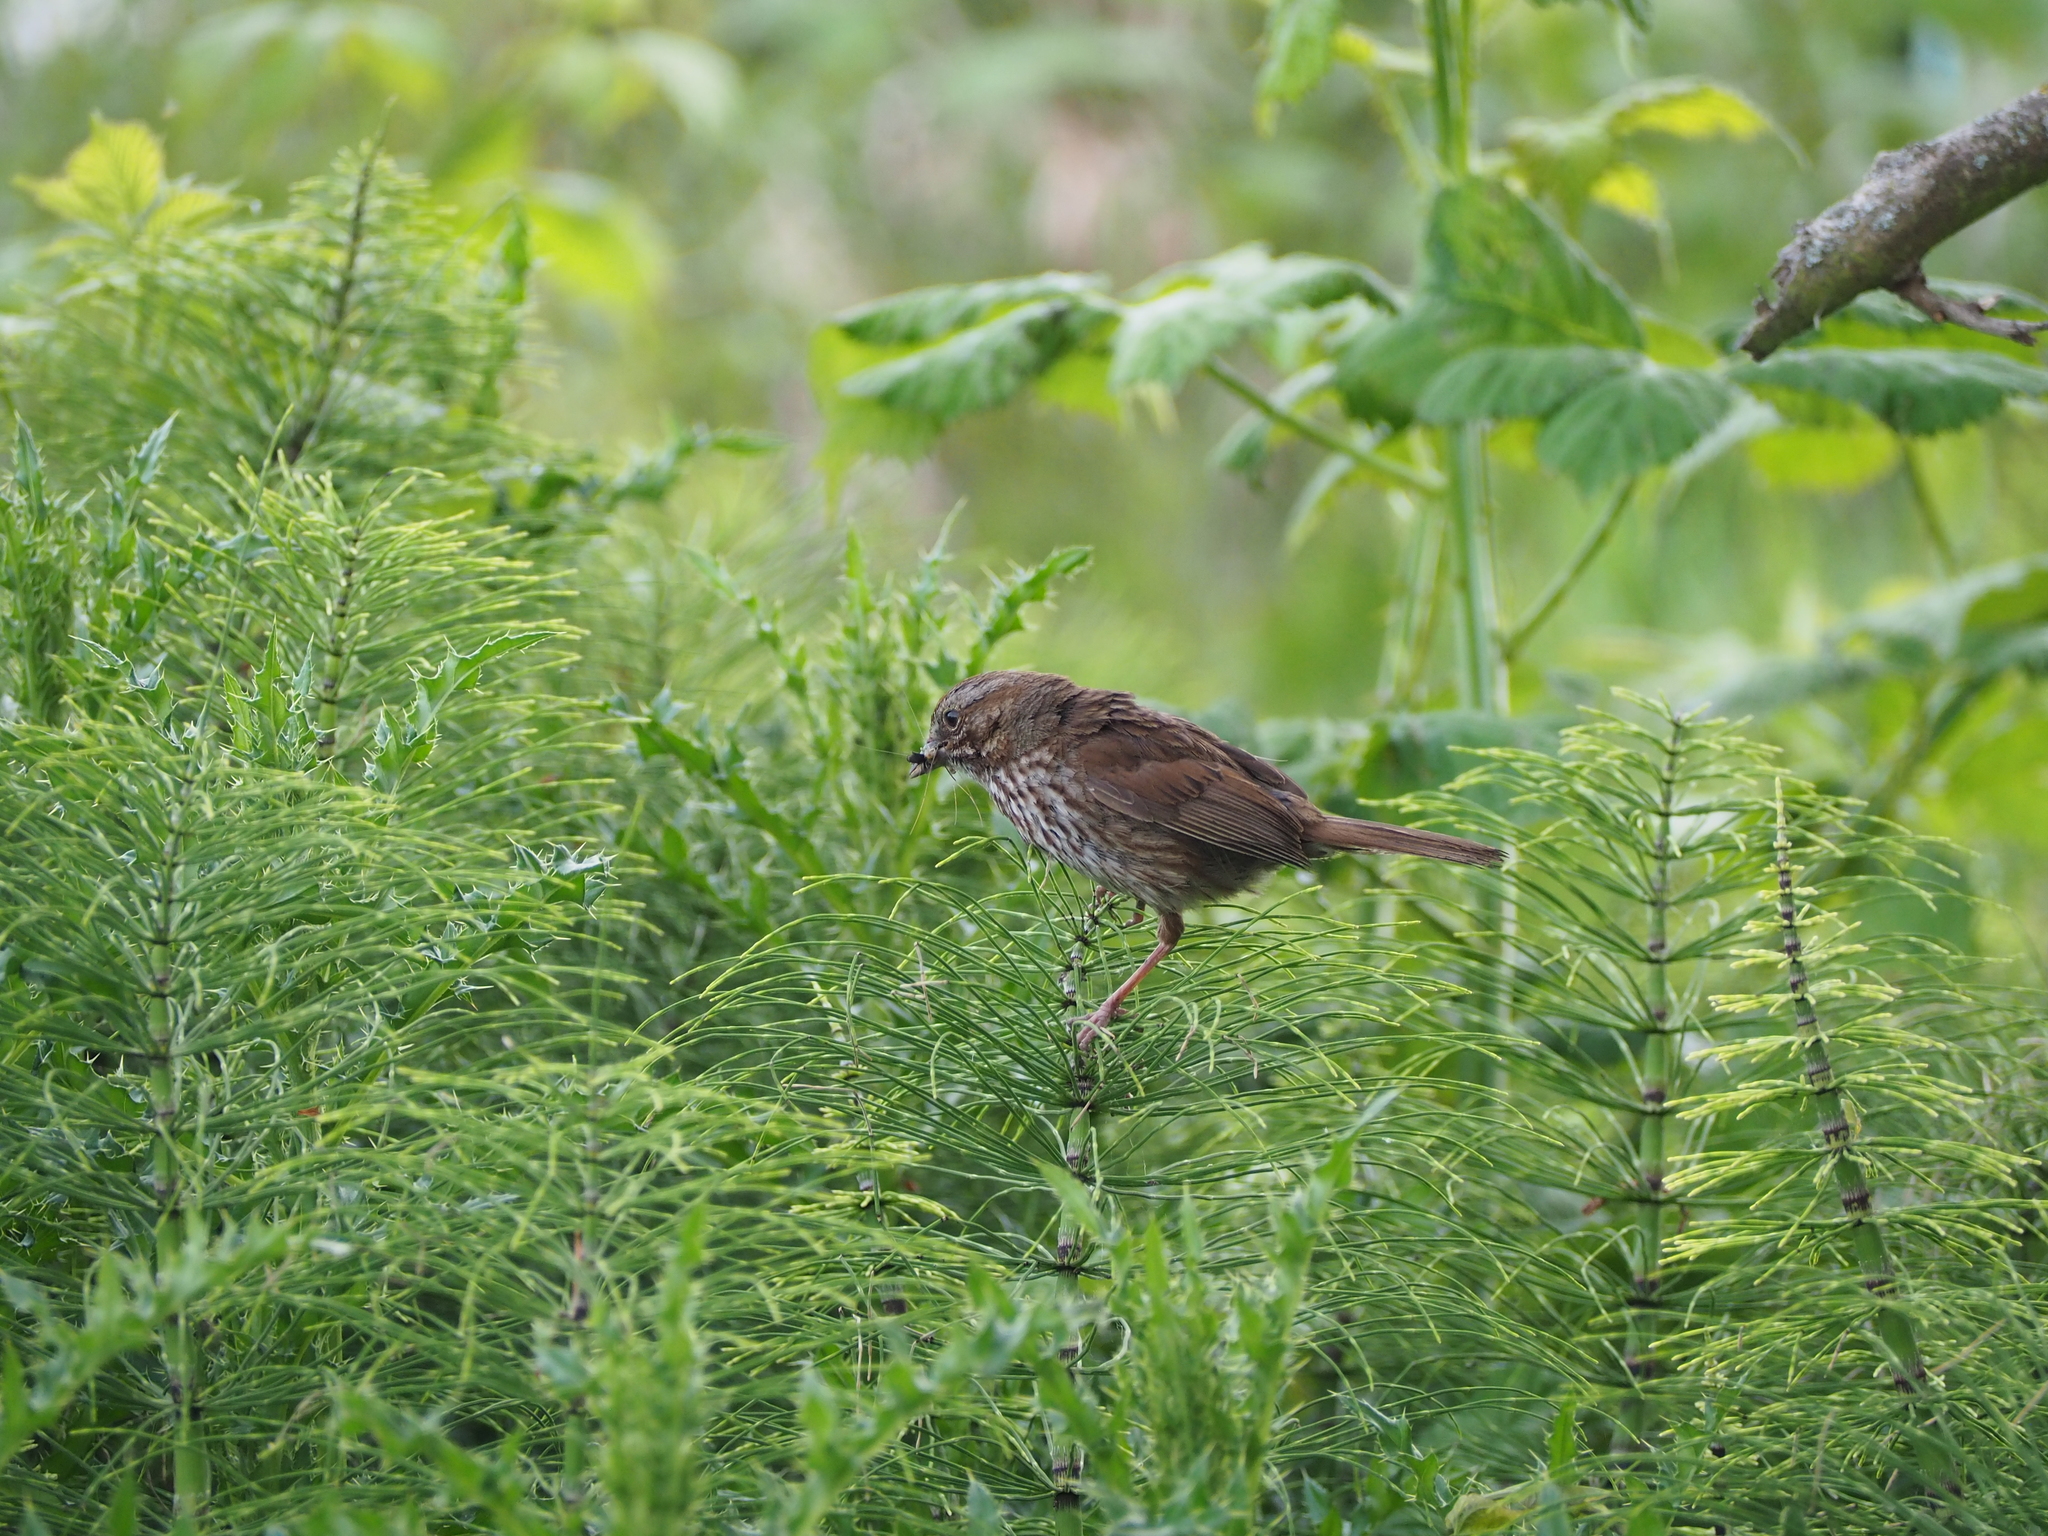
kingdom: Animalia
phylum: Chordata
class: Aves
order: Passeriformes
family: Passerellidae
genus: Melospiza
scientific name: Melospiza melodia
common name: Song sparrow
